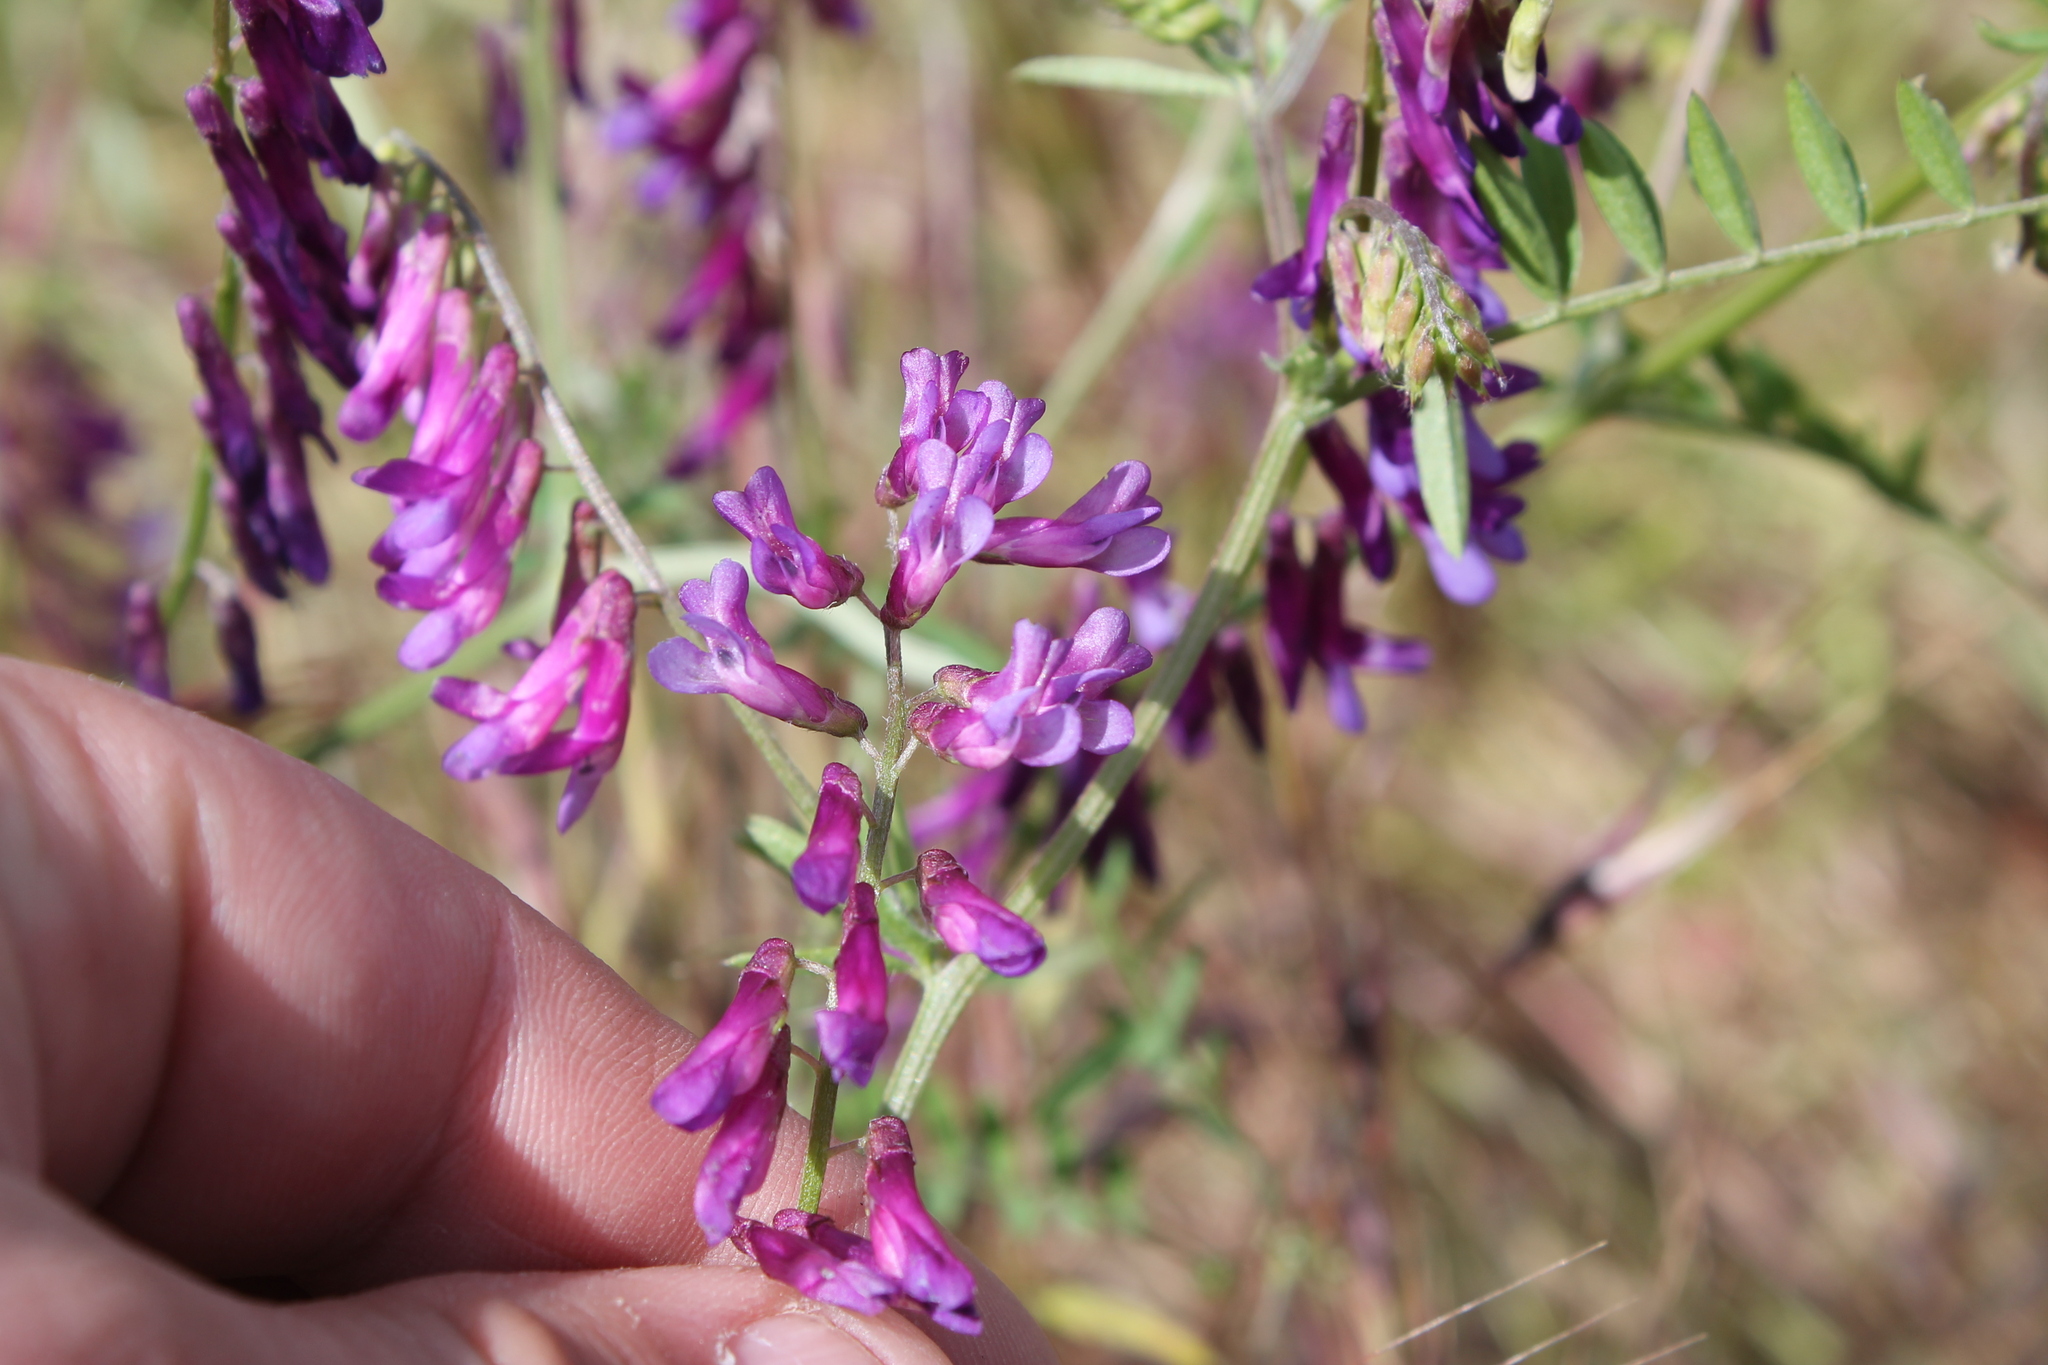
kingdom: Plantae
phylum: Tracheophyta
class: Magnoliopsida
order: Fabales
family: Fabaceae
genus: Vicia
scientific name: Vicia villosa
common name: Fodder vetch
